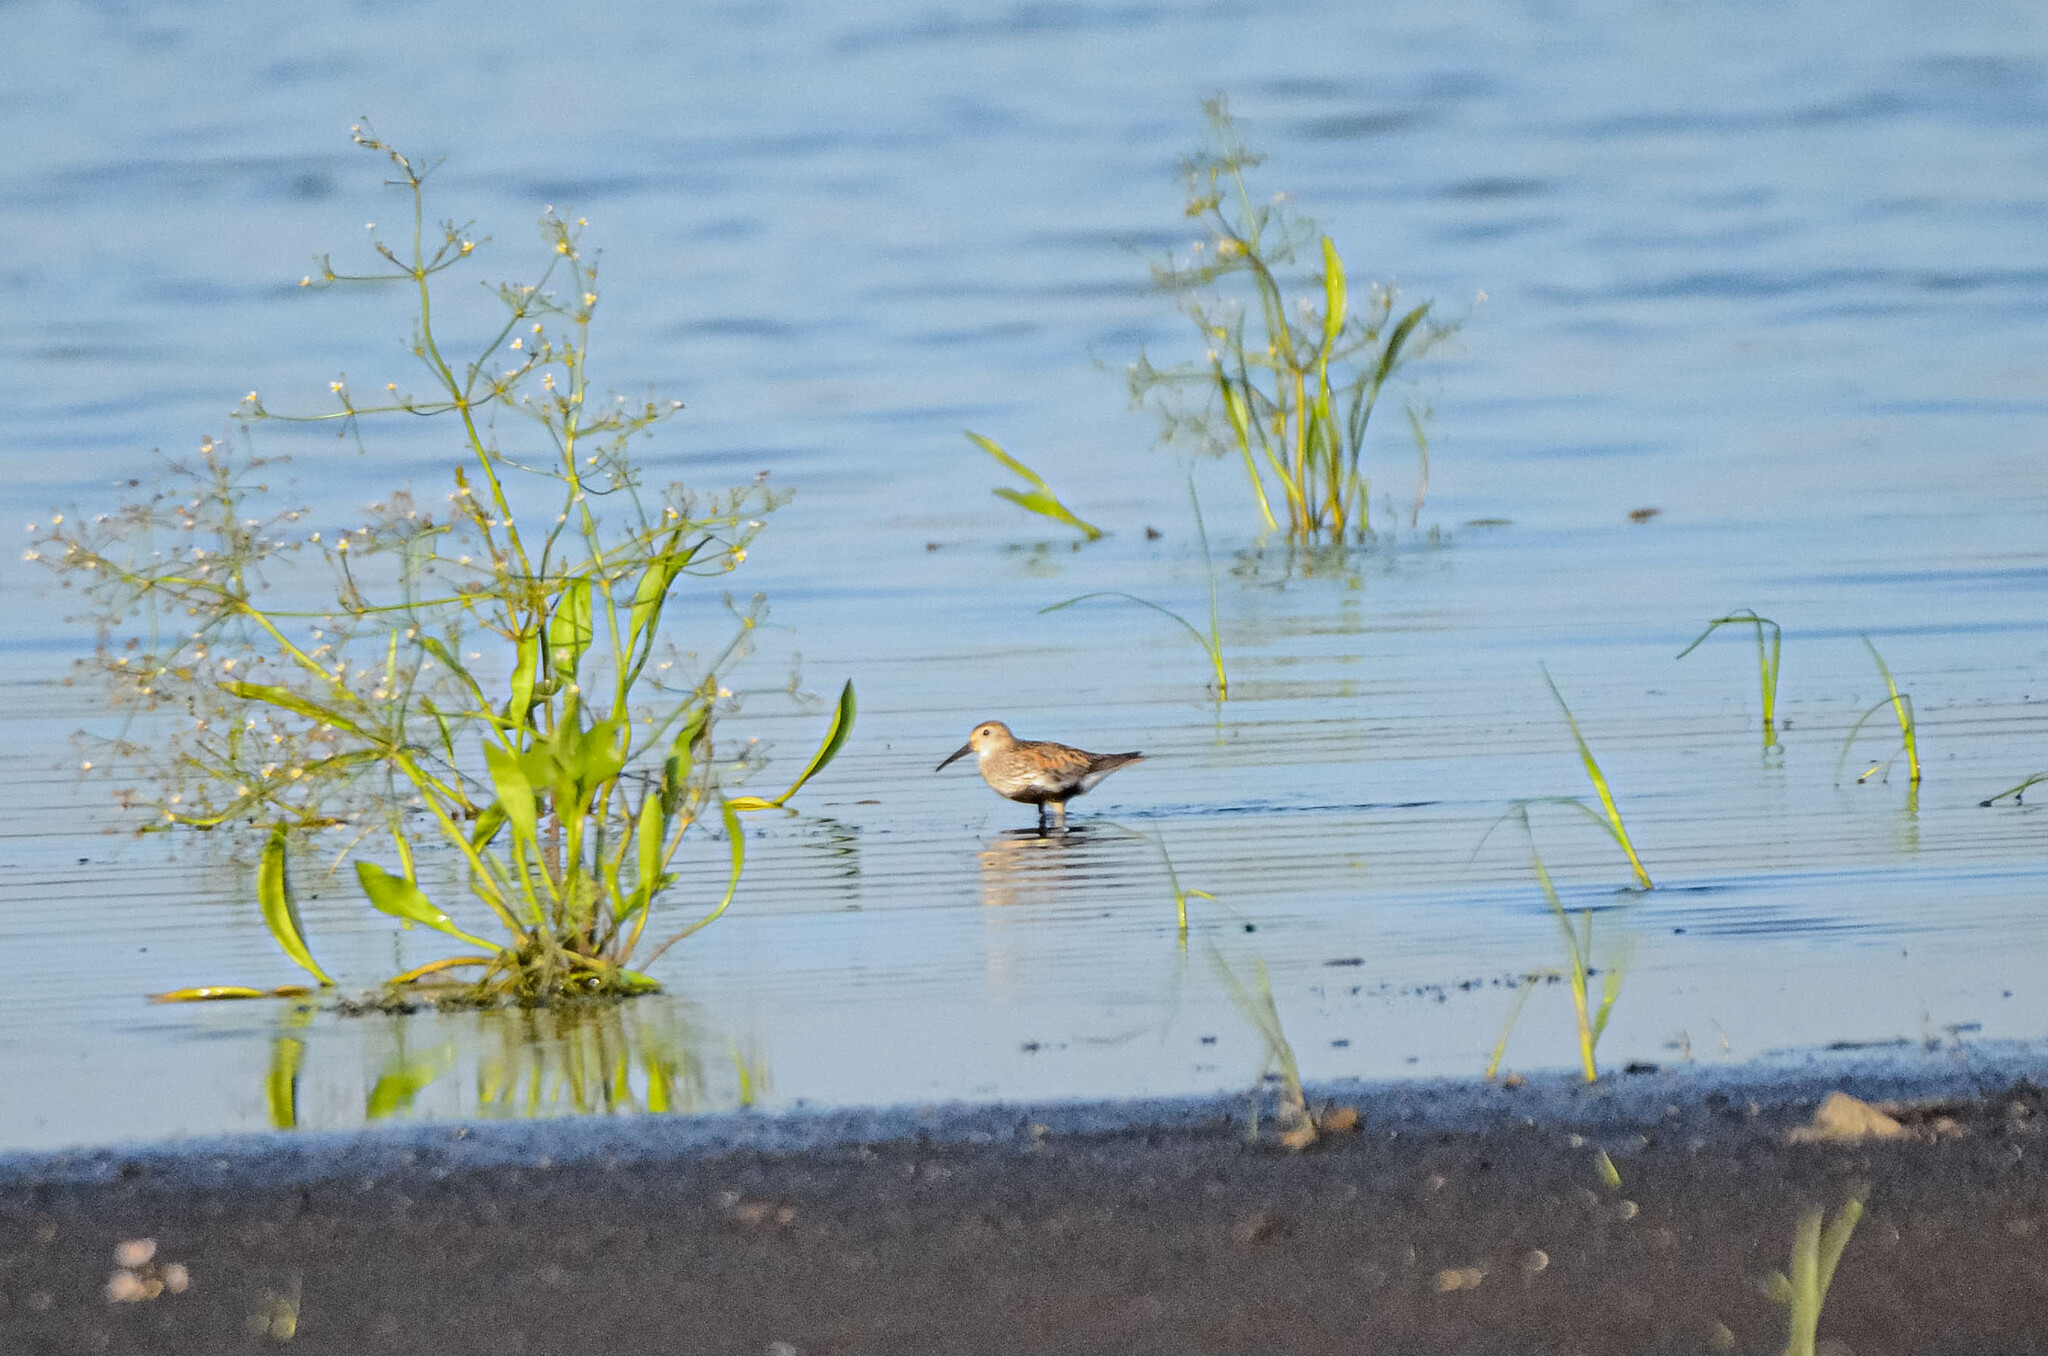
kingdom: Animalia
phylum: Chordata
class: Aves
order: Charadriiformes
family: Scolopacidae
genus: Calidris
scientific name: Calidris alpina
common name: Dunlin
